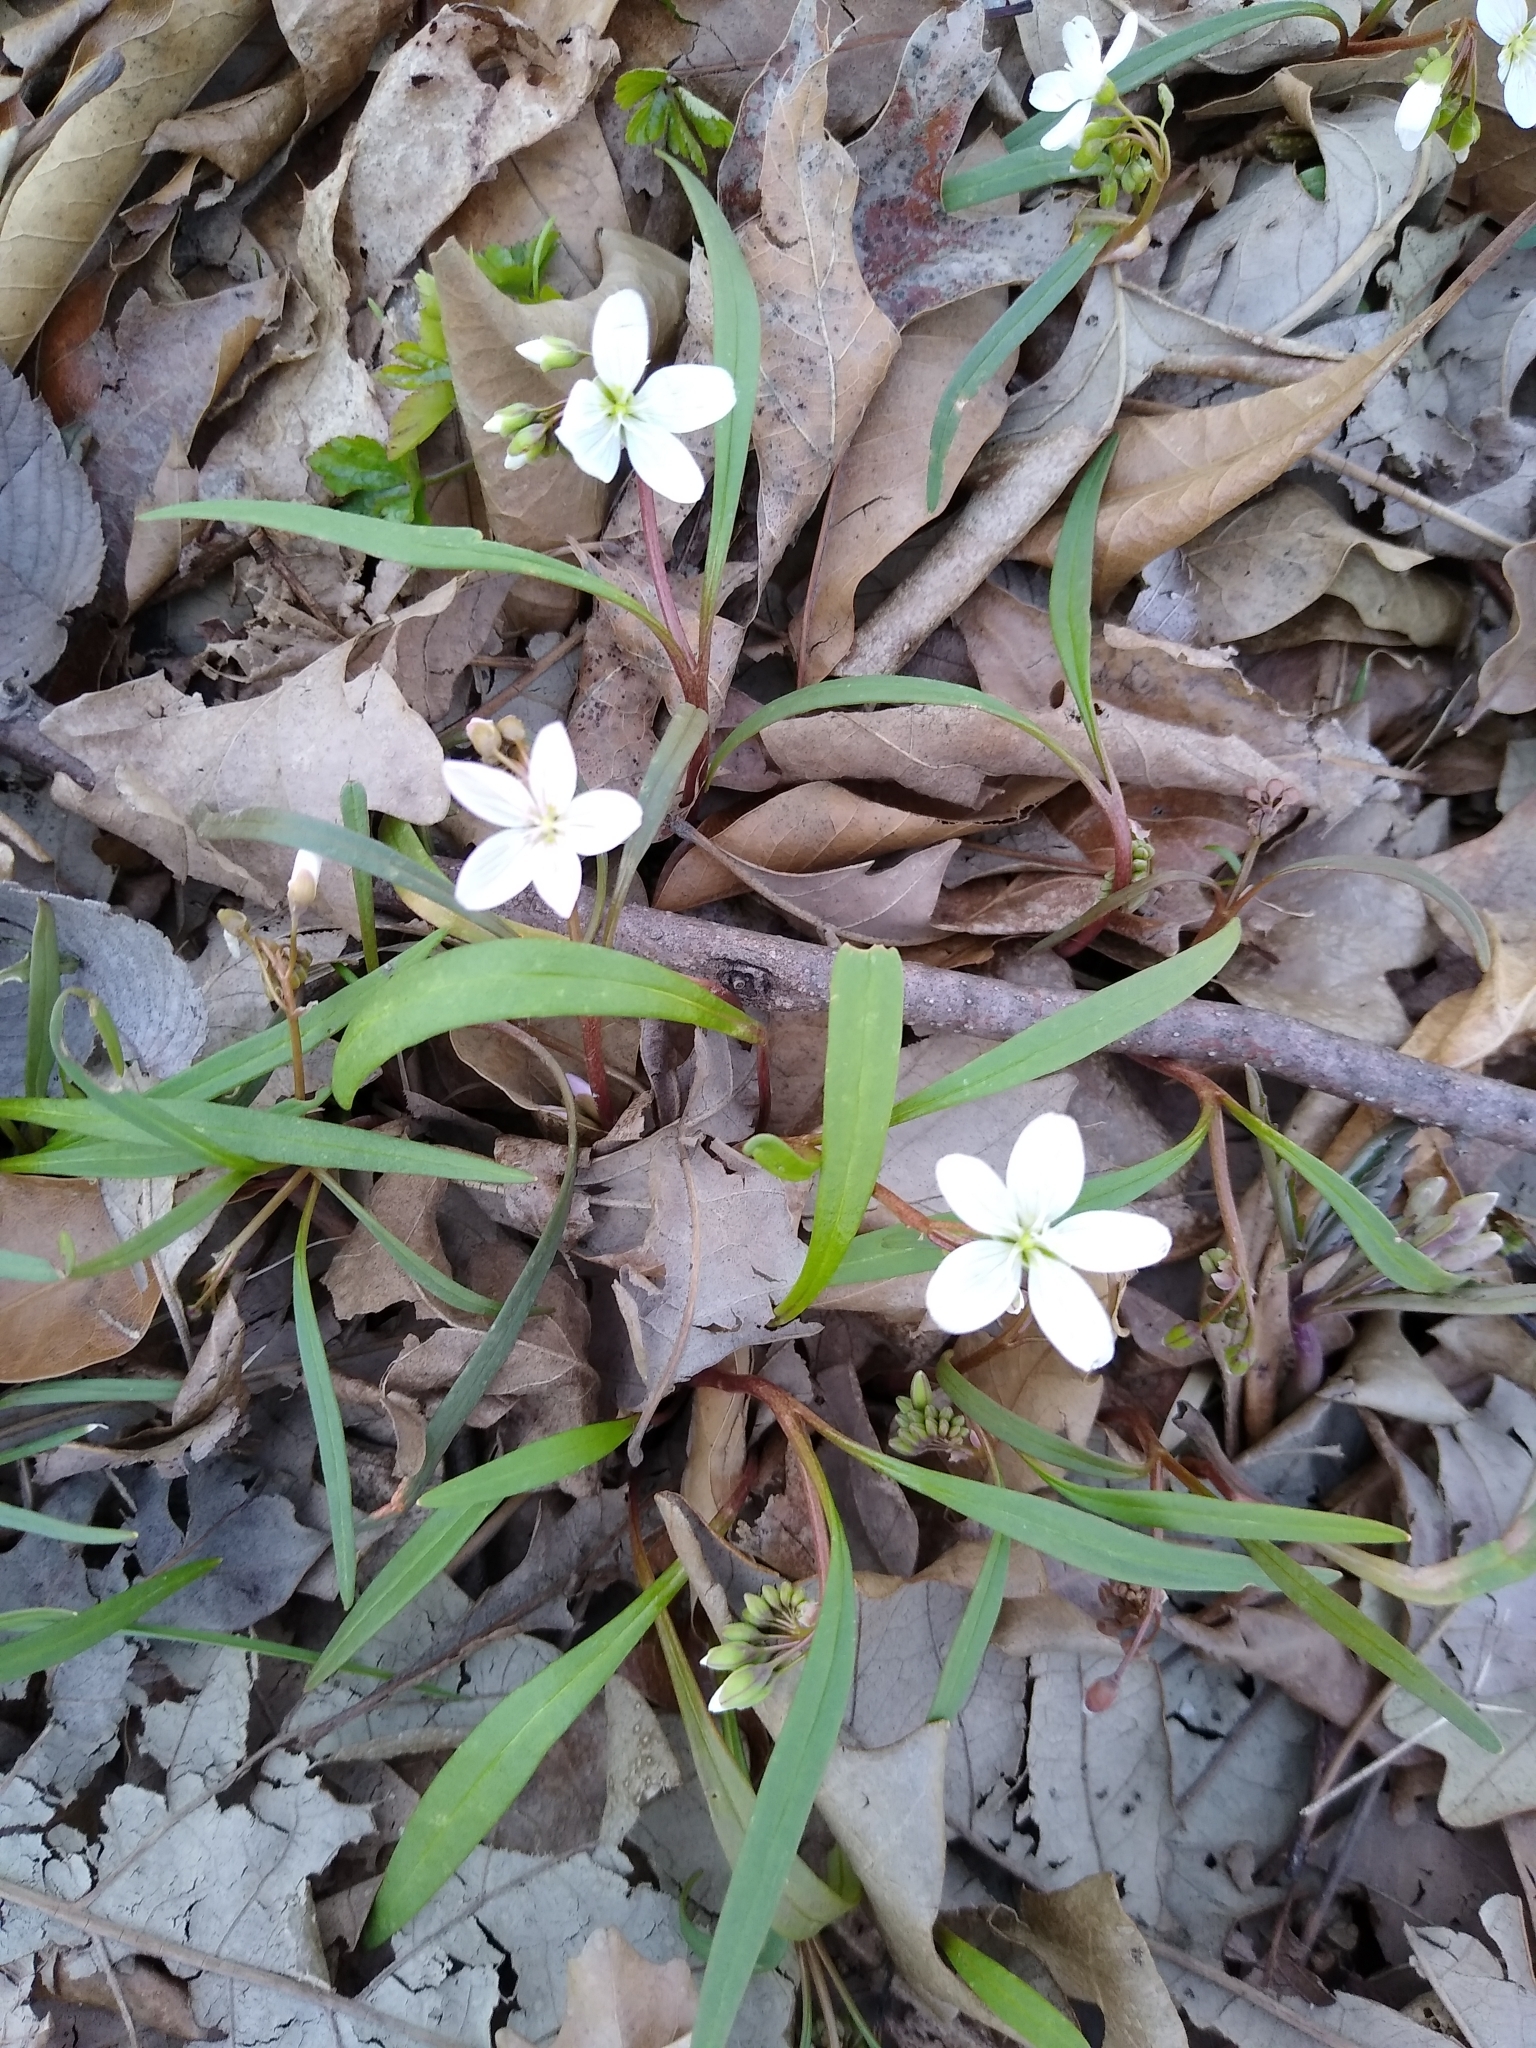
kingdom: Plantae
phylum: Tracheophyta
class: Magnoliopsida
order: Caryophyllales
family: Montiaceae
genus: Claytonia
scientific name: Claytonia virginica
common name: Virginia springbeauty
